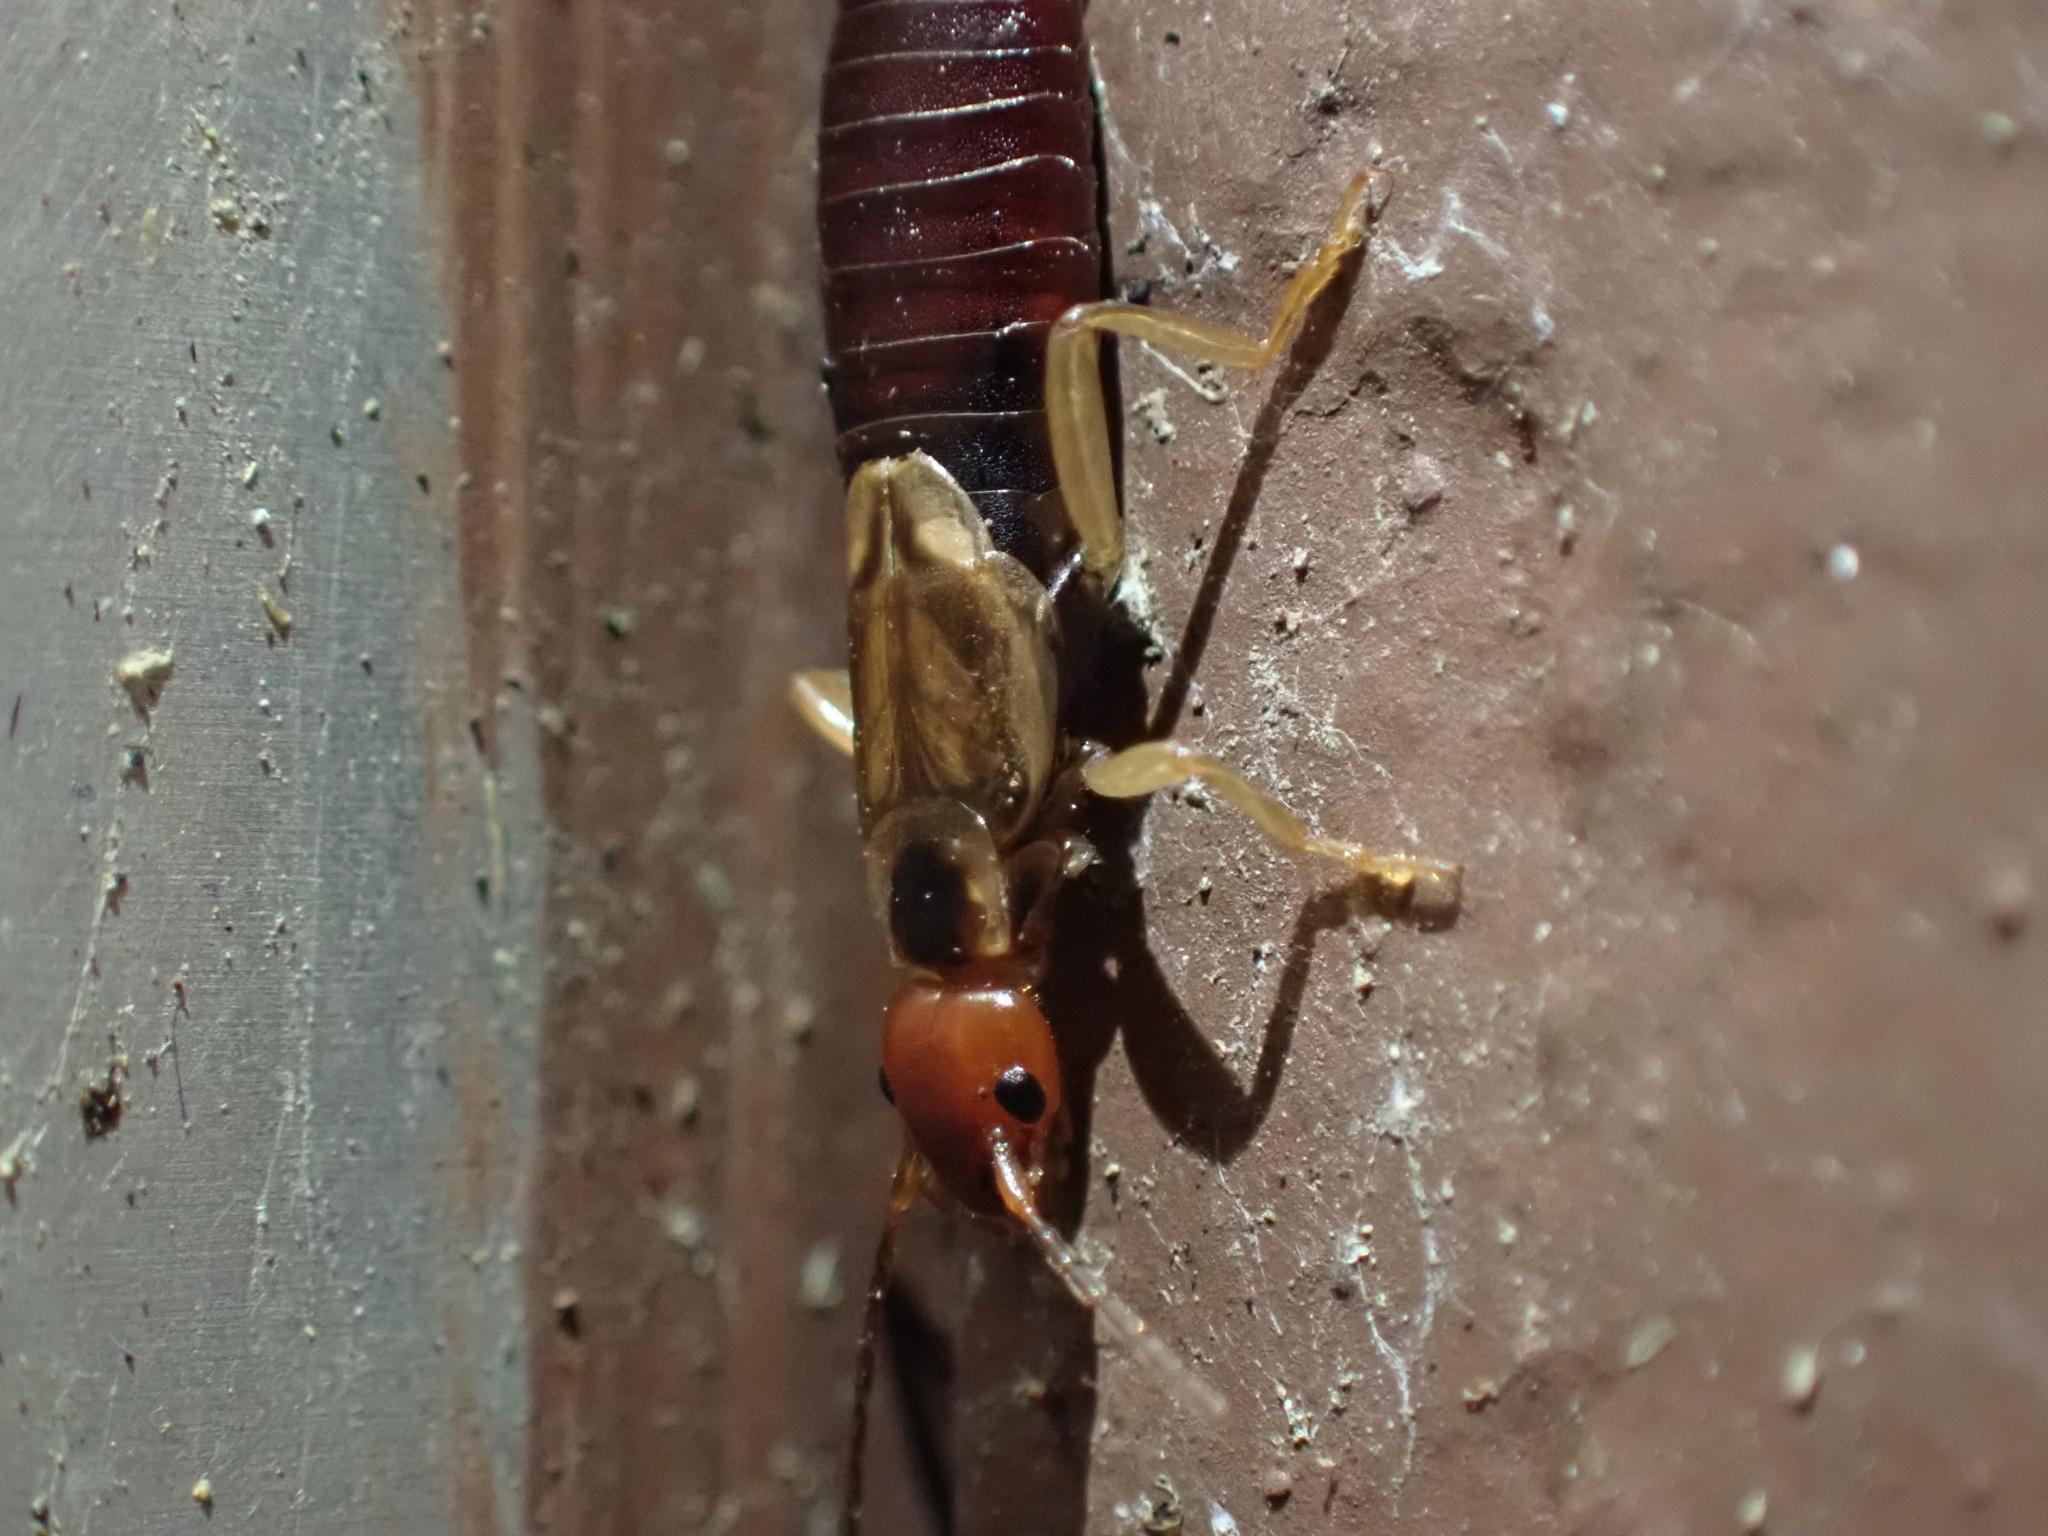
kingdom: Animalia
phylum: Arthropoda
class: Insecta
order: Dermaptera
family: Forficulidae
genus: Forficula
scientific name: Forficula
